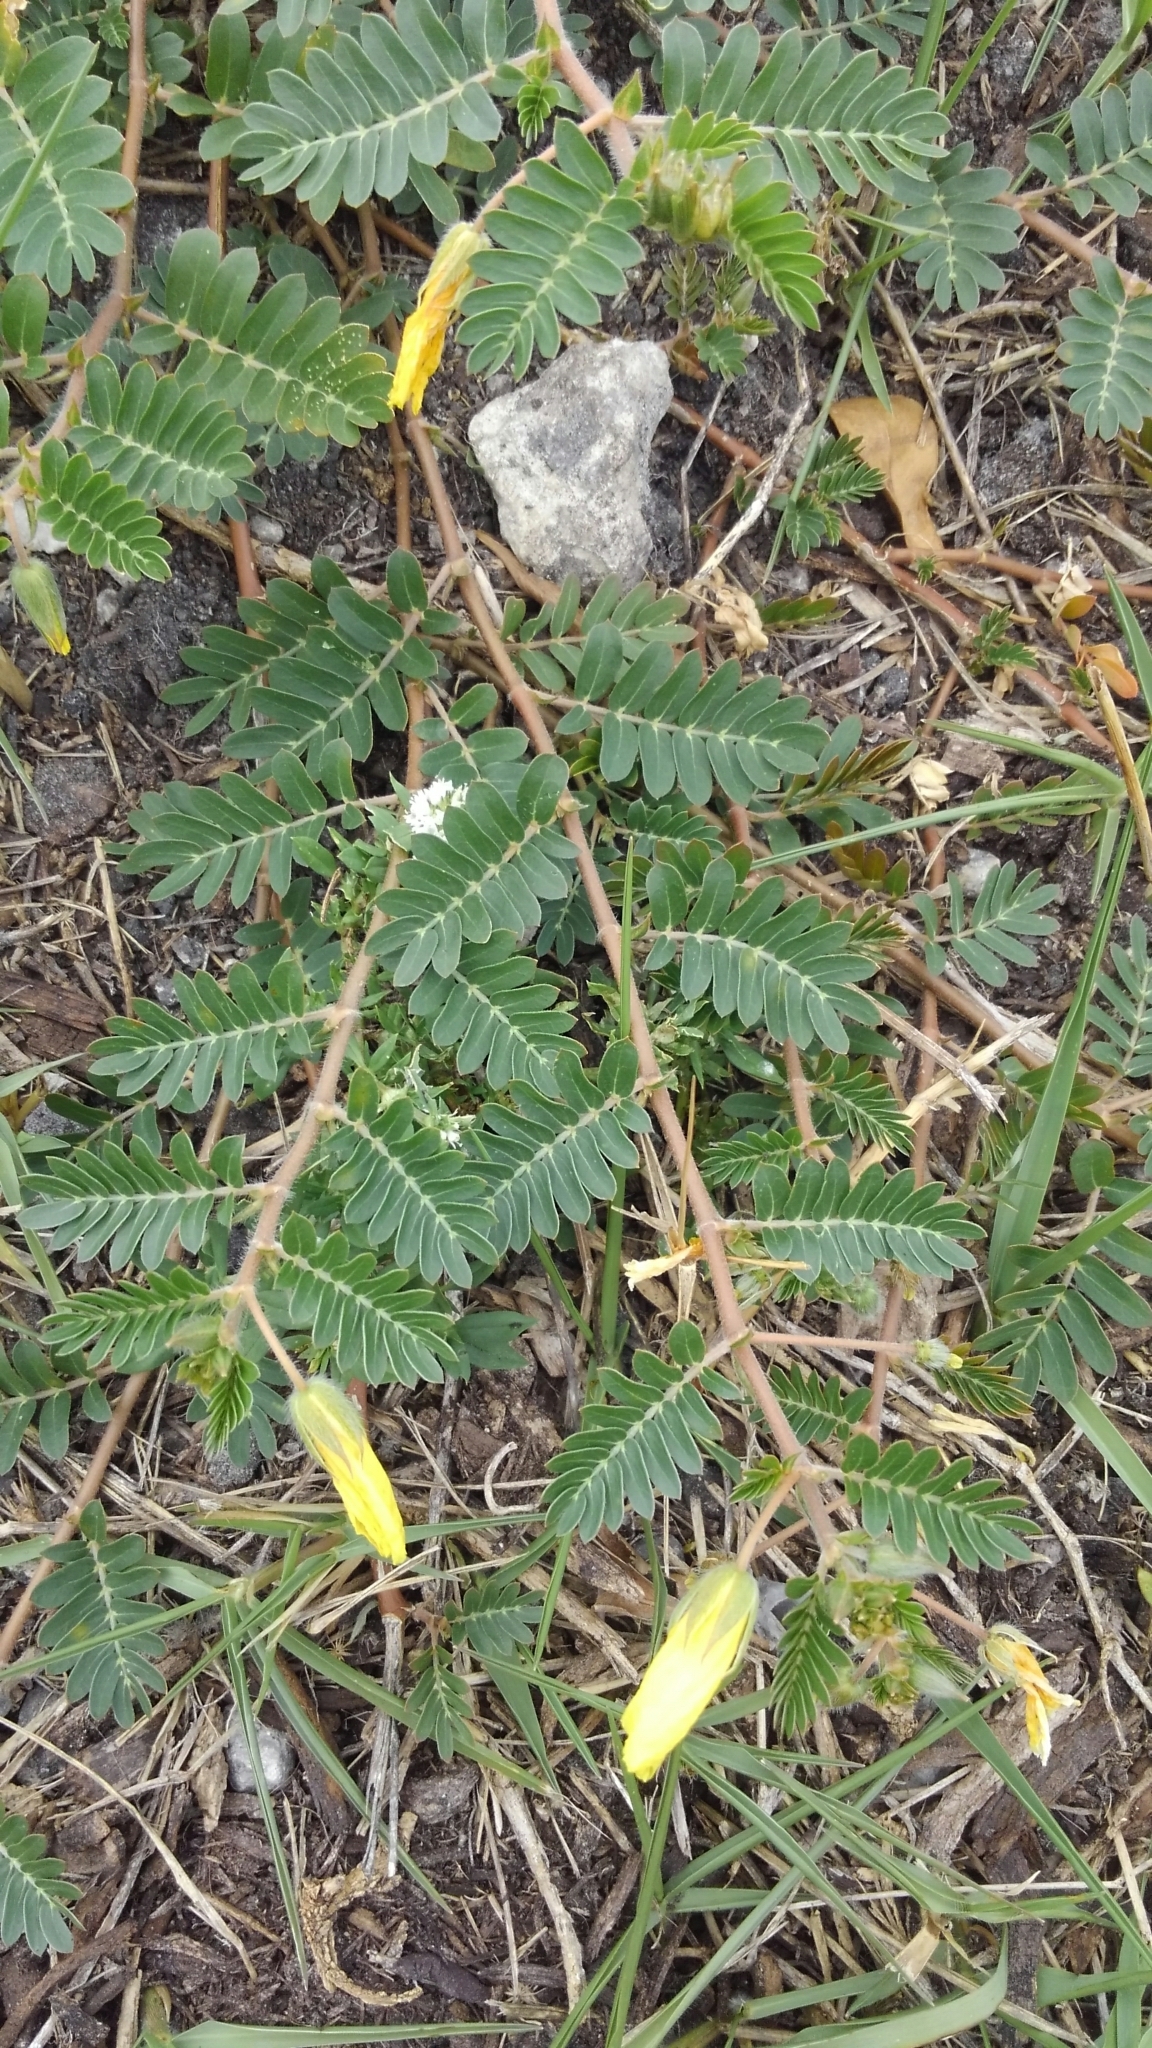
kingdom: Plantae
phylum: Tracheophyta
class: Magnoliopsida
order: Zygophyllales
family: Zygophyllaceae
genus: Tribulus
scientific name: Tribulus cistoides
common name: Jamaican feverplant
